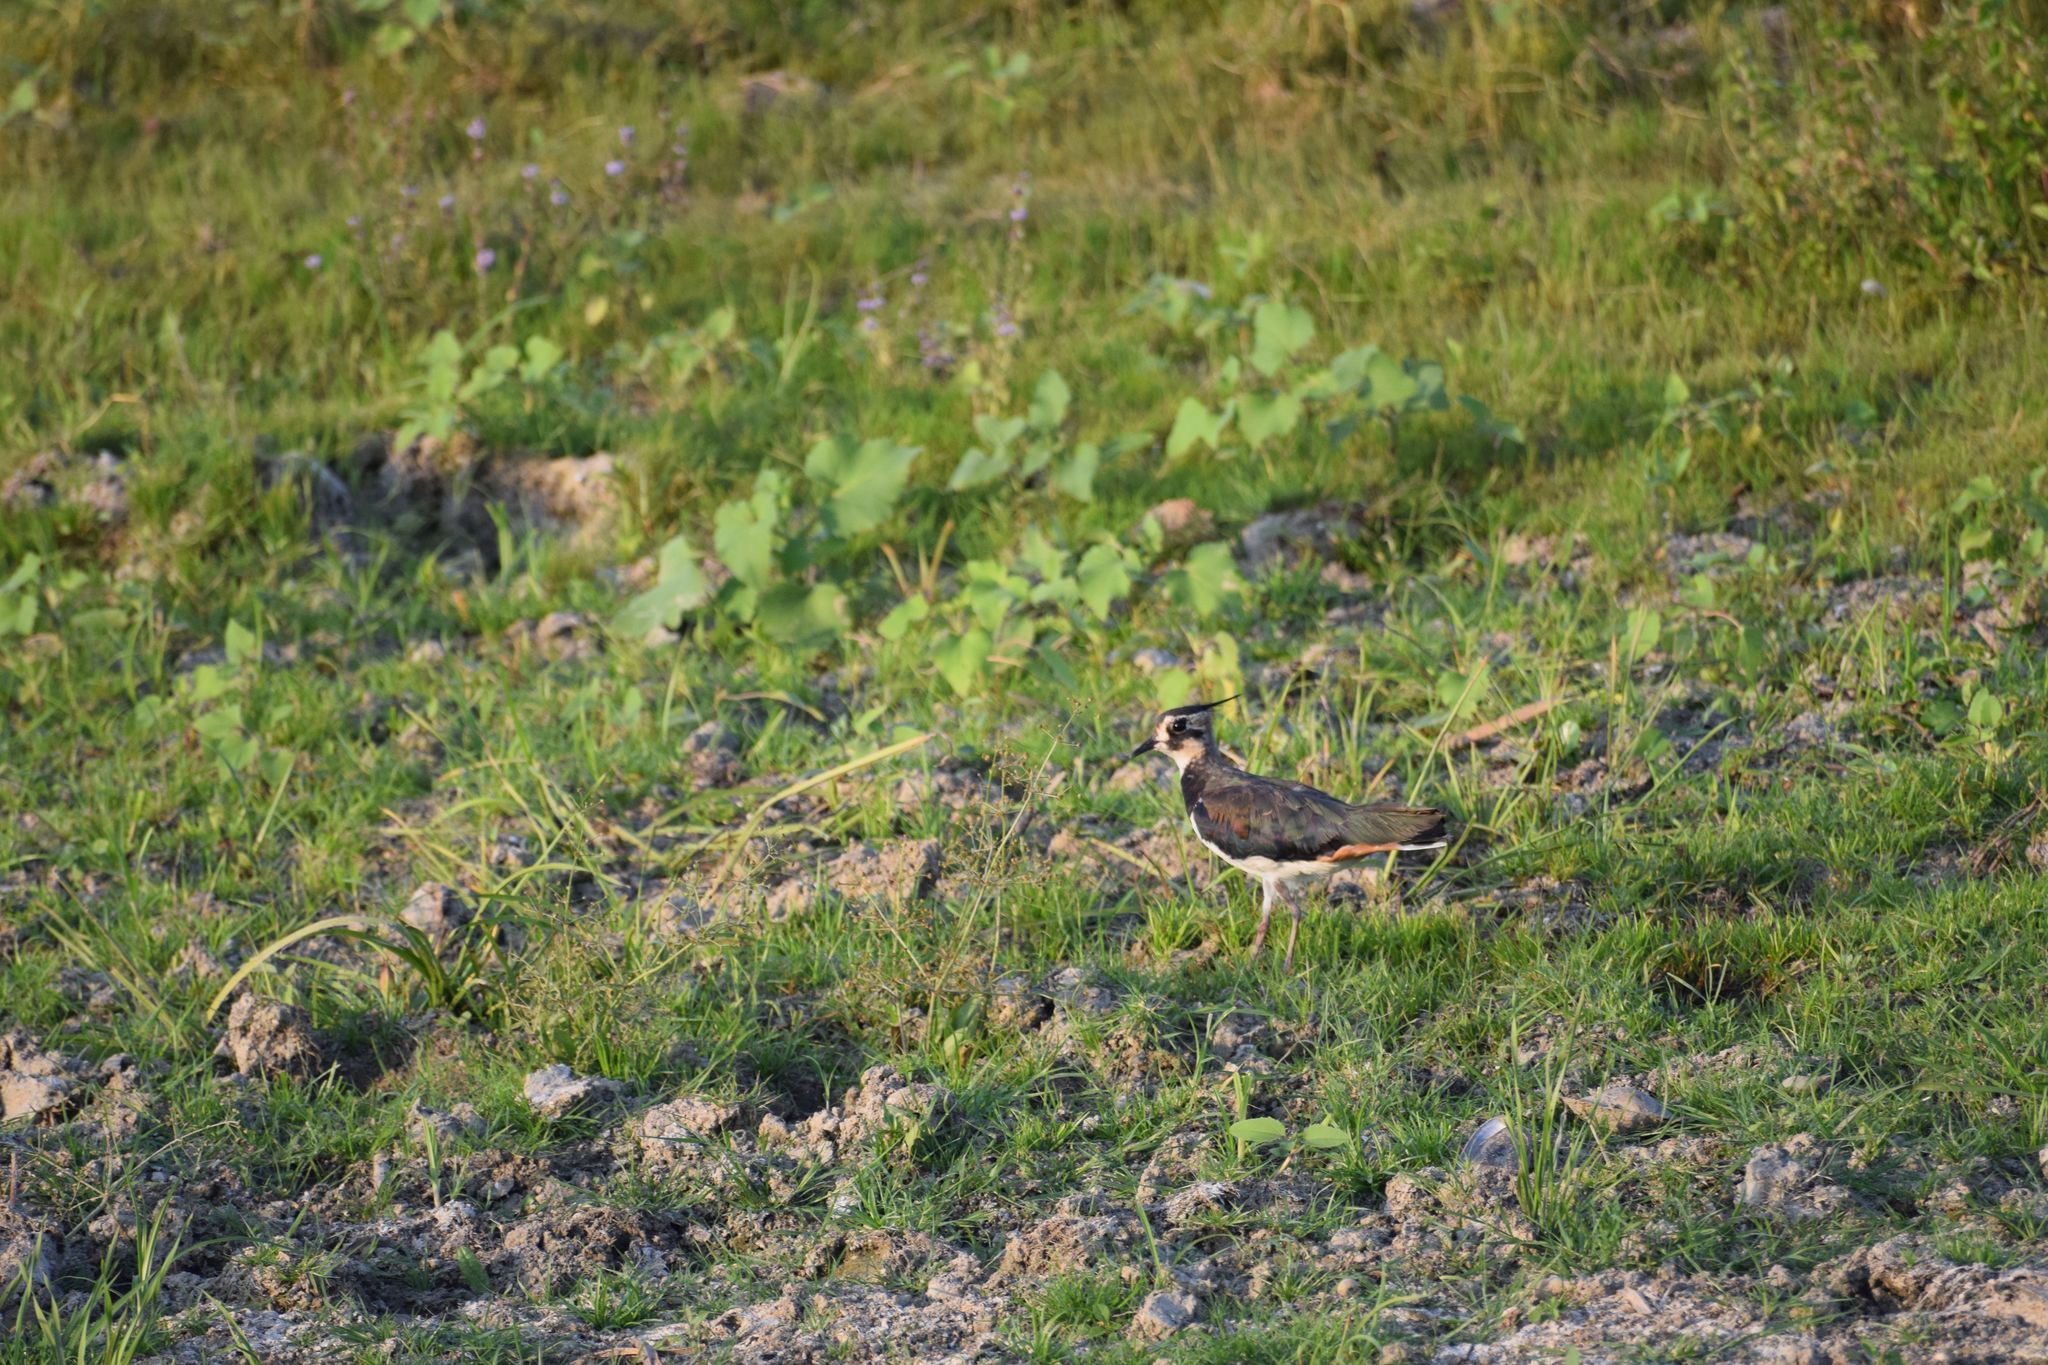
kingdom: Animalia
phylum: Chordata
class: Aves
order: Charadriiformes
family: Charadriidae
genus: Vanellus
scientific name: Vanellus vanellus
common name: Northern lapwing
